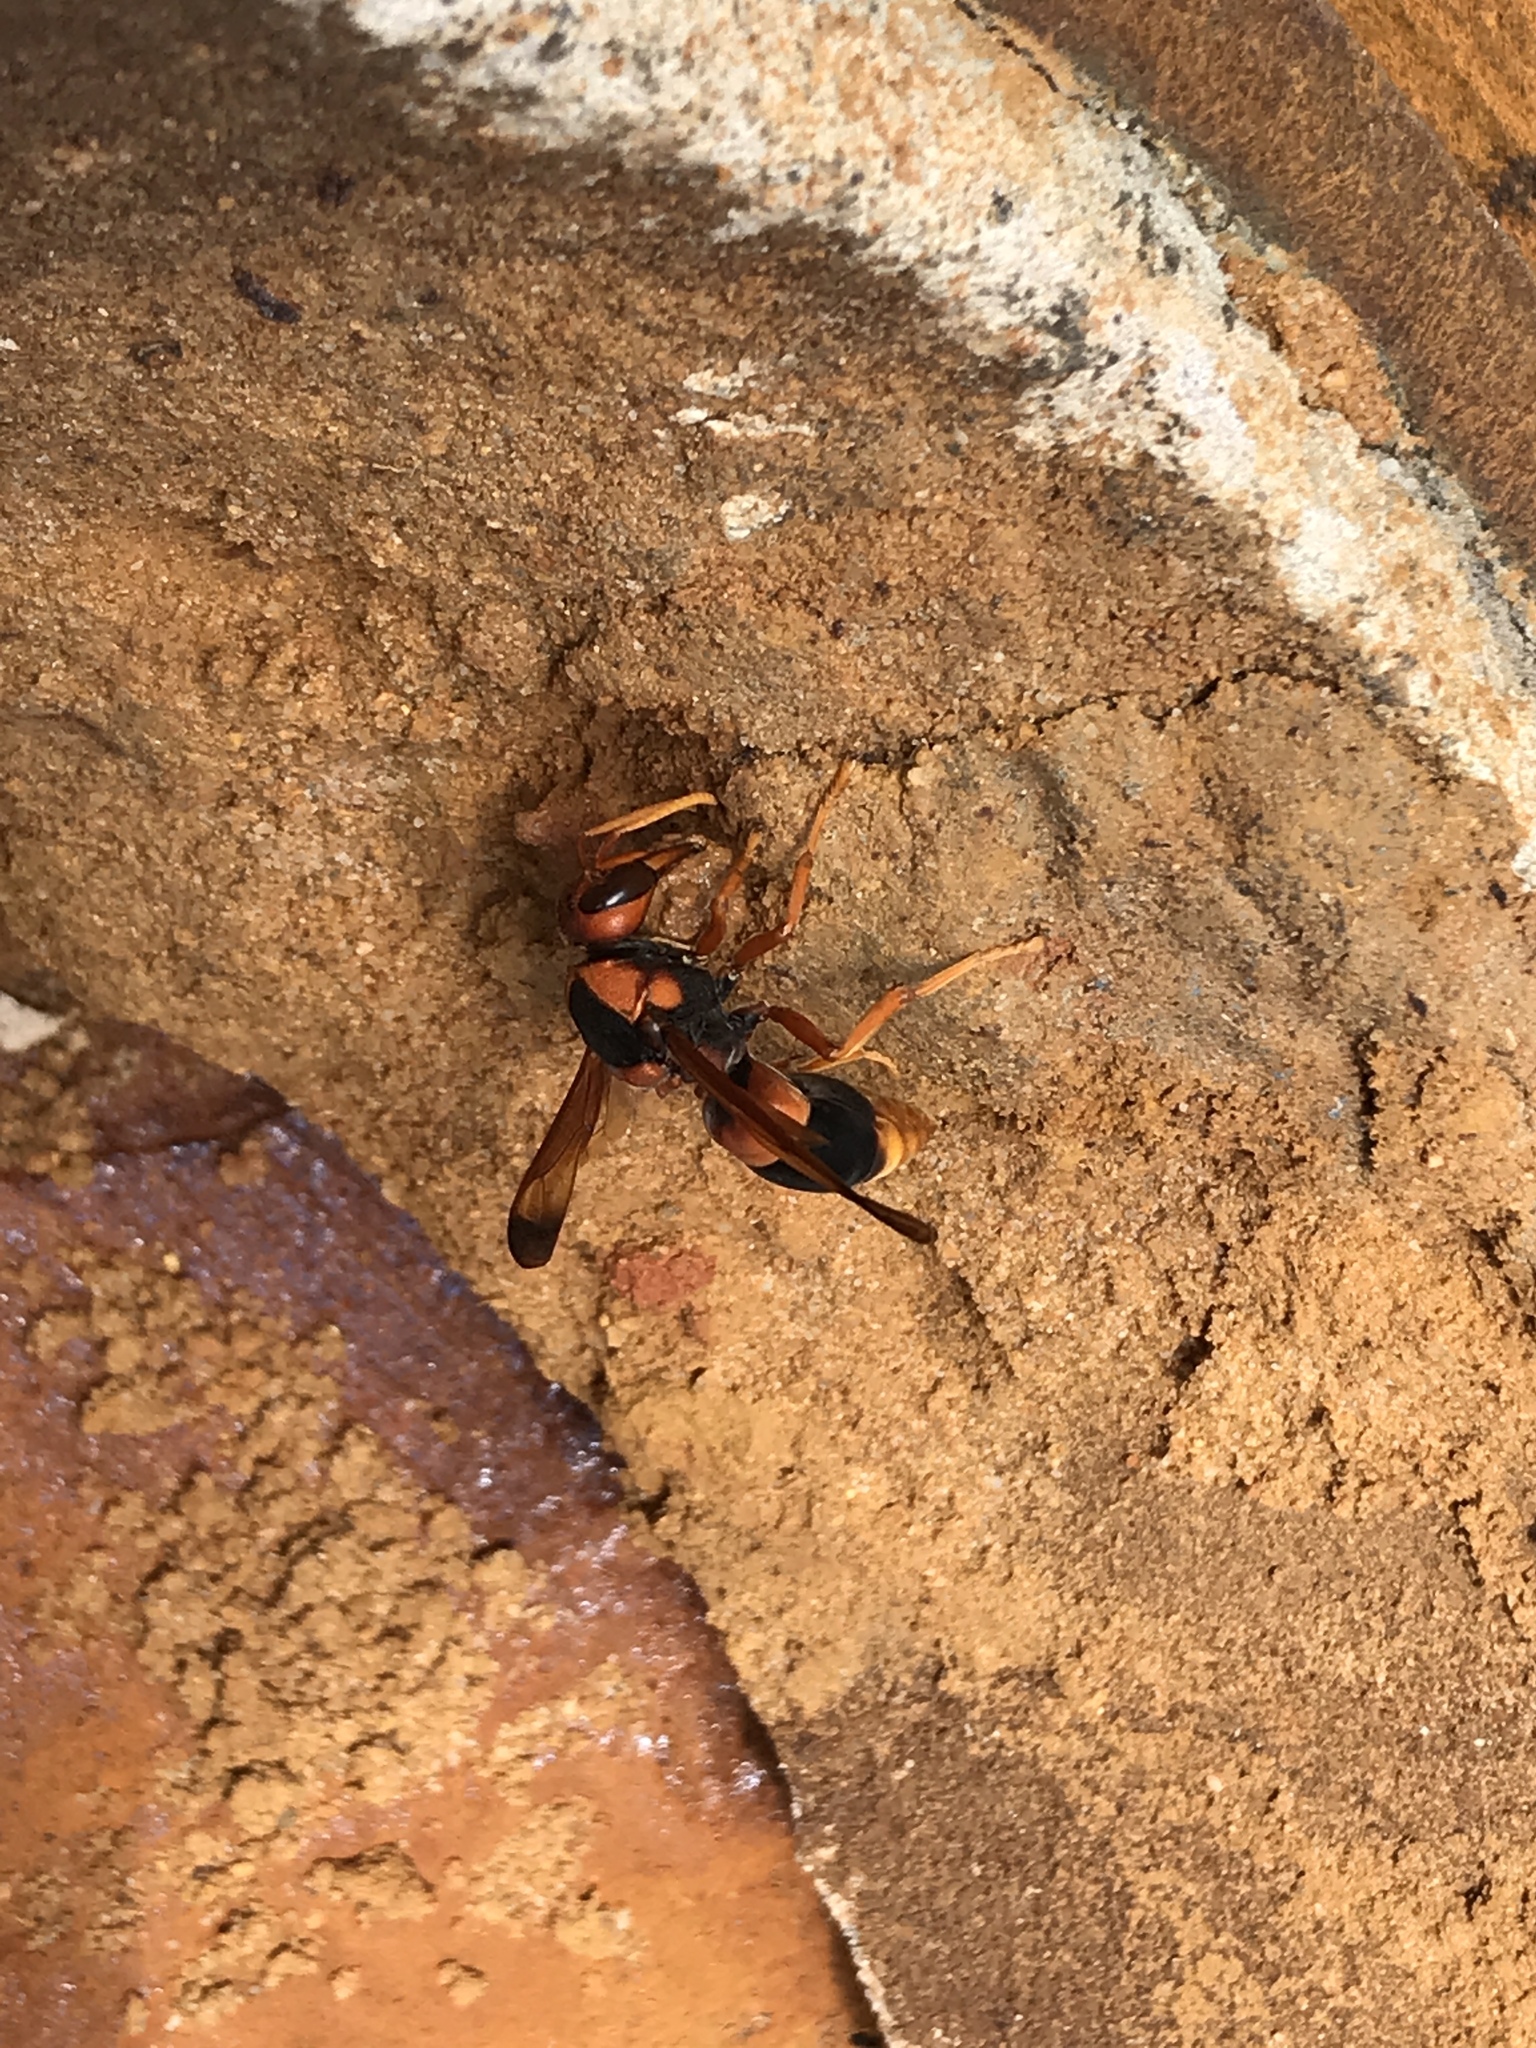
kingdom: Animalia
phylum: Arthropoda
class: Insecta
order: Hymenoptera
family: Eumenidae
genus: Abispa
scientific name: Abispa ephippium
